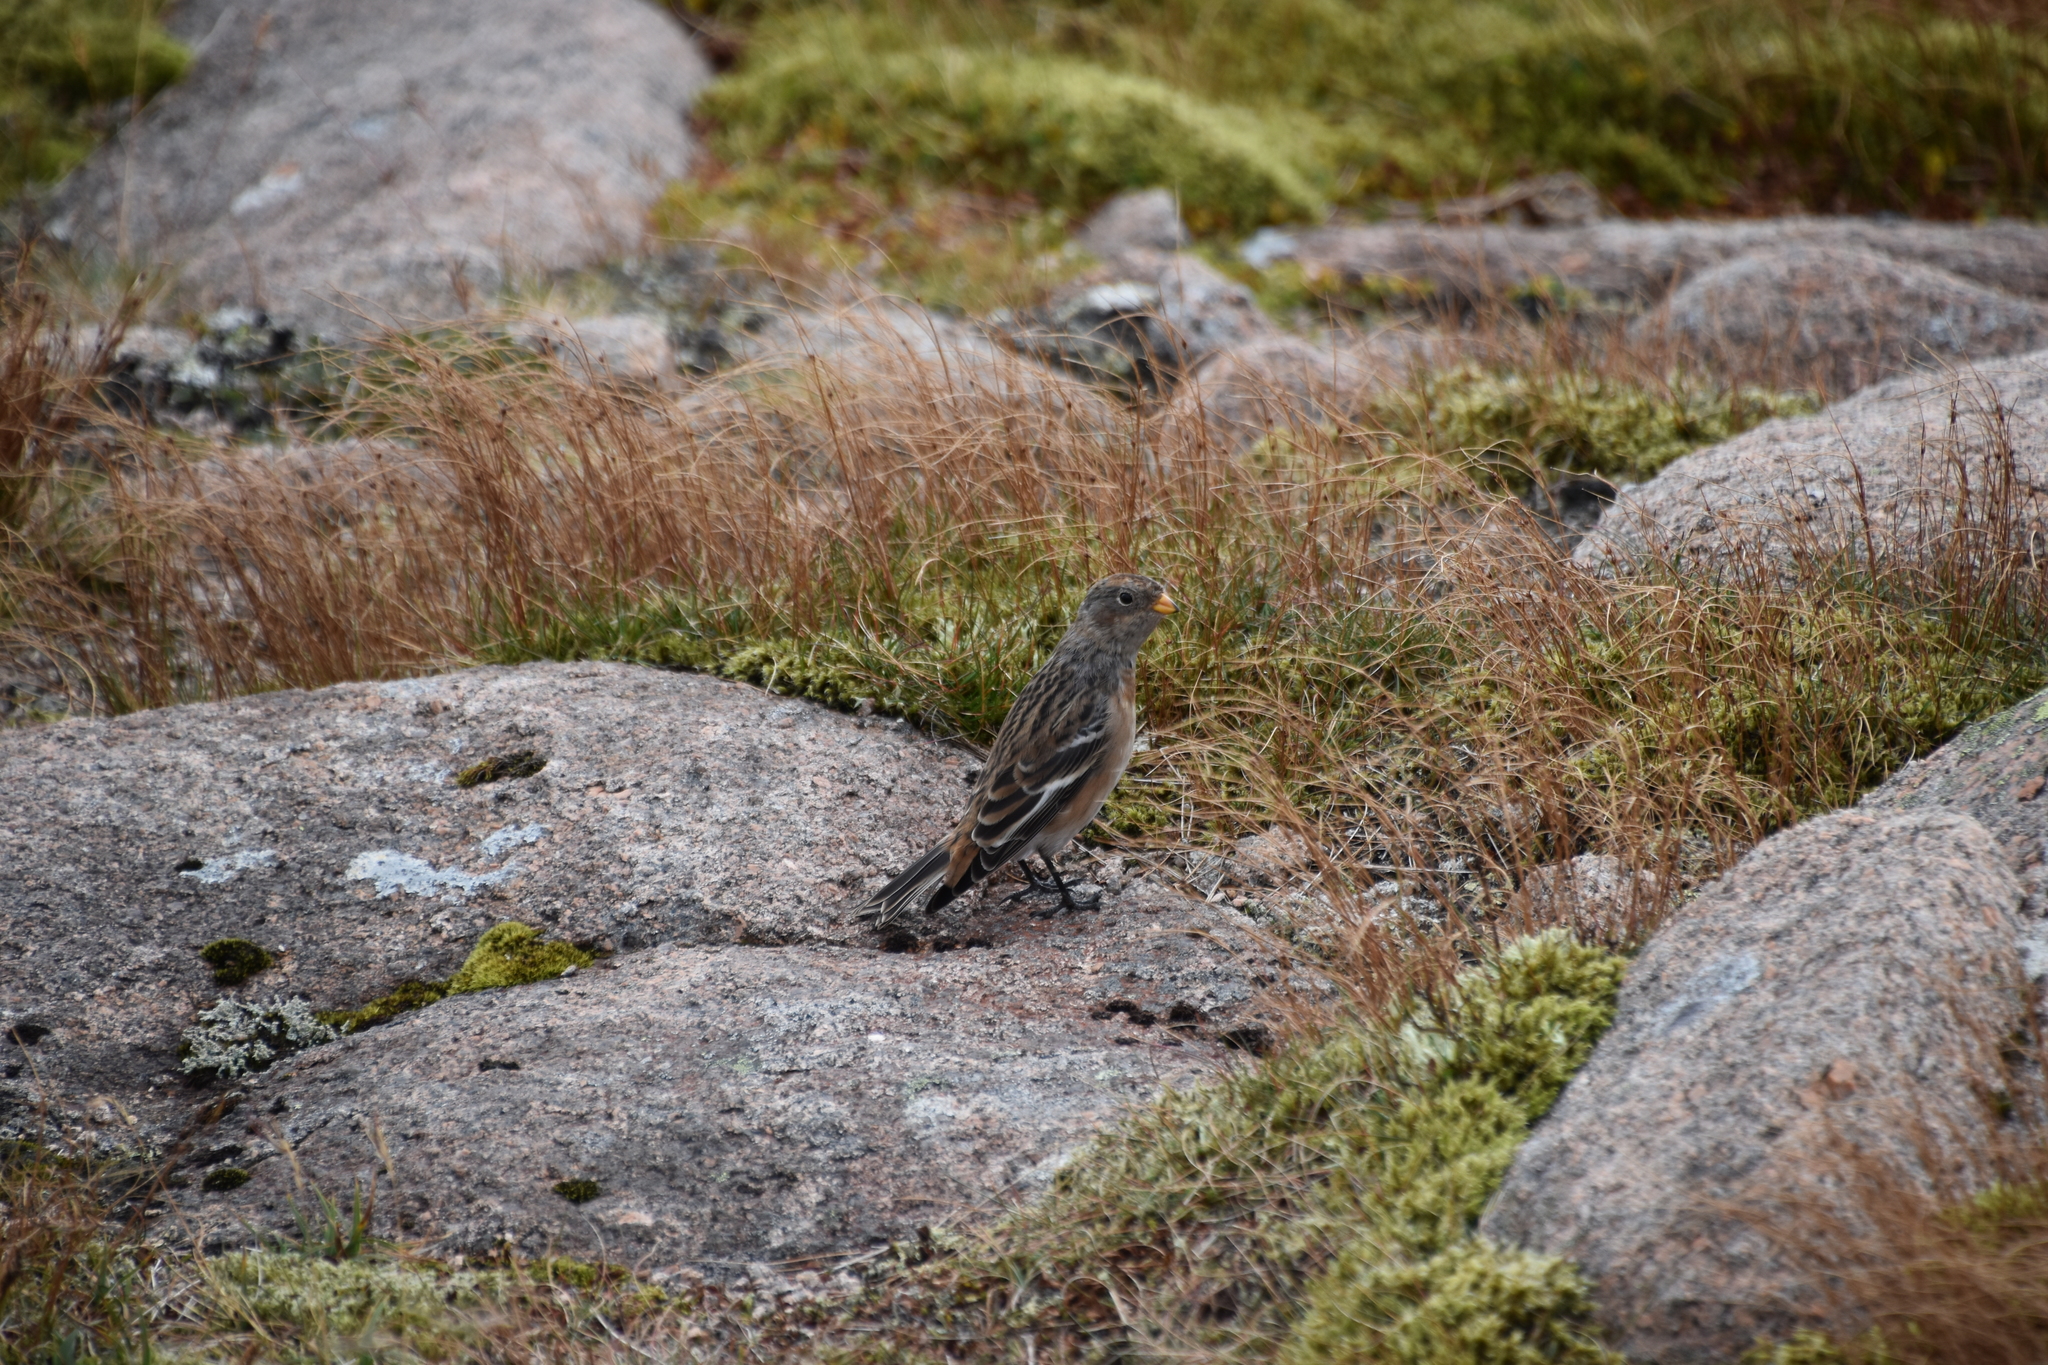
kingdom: Animalia
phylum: Chordata
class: Aves
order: Passeriformes
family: Calcariidae
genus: Plectrophenax
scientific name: Plectrophenax nivalis
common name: Snow bunting
